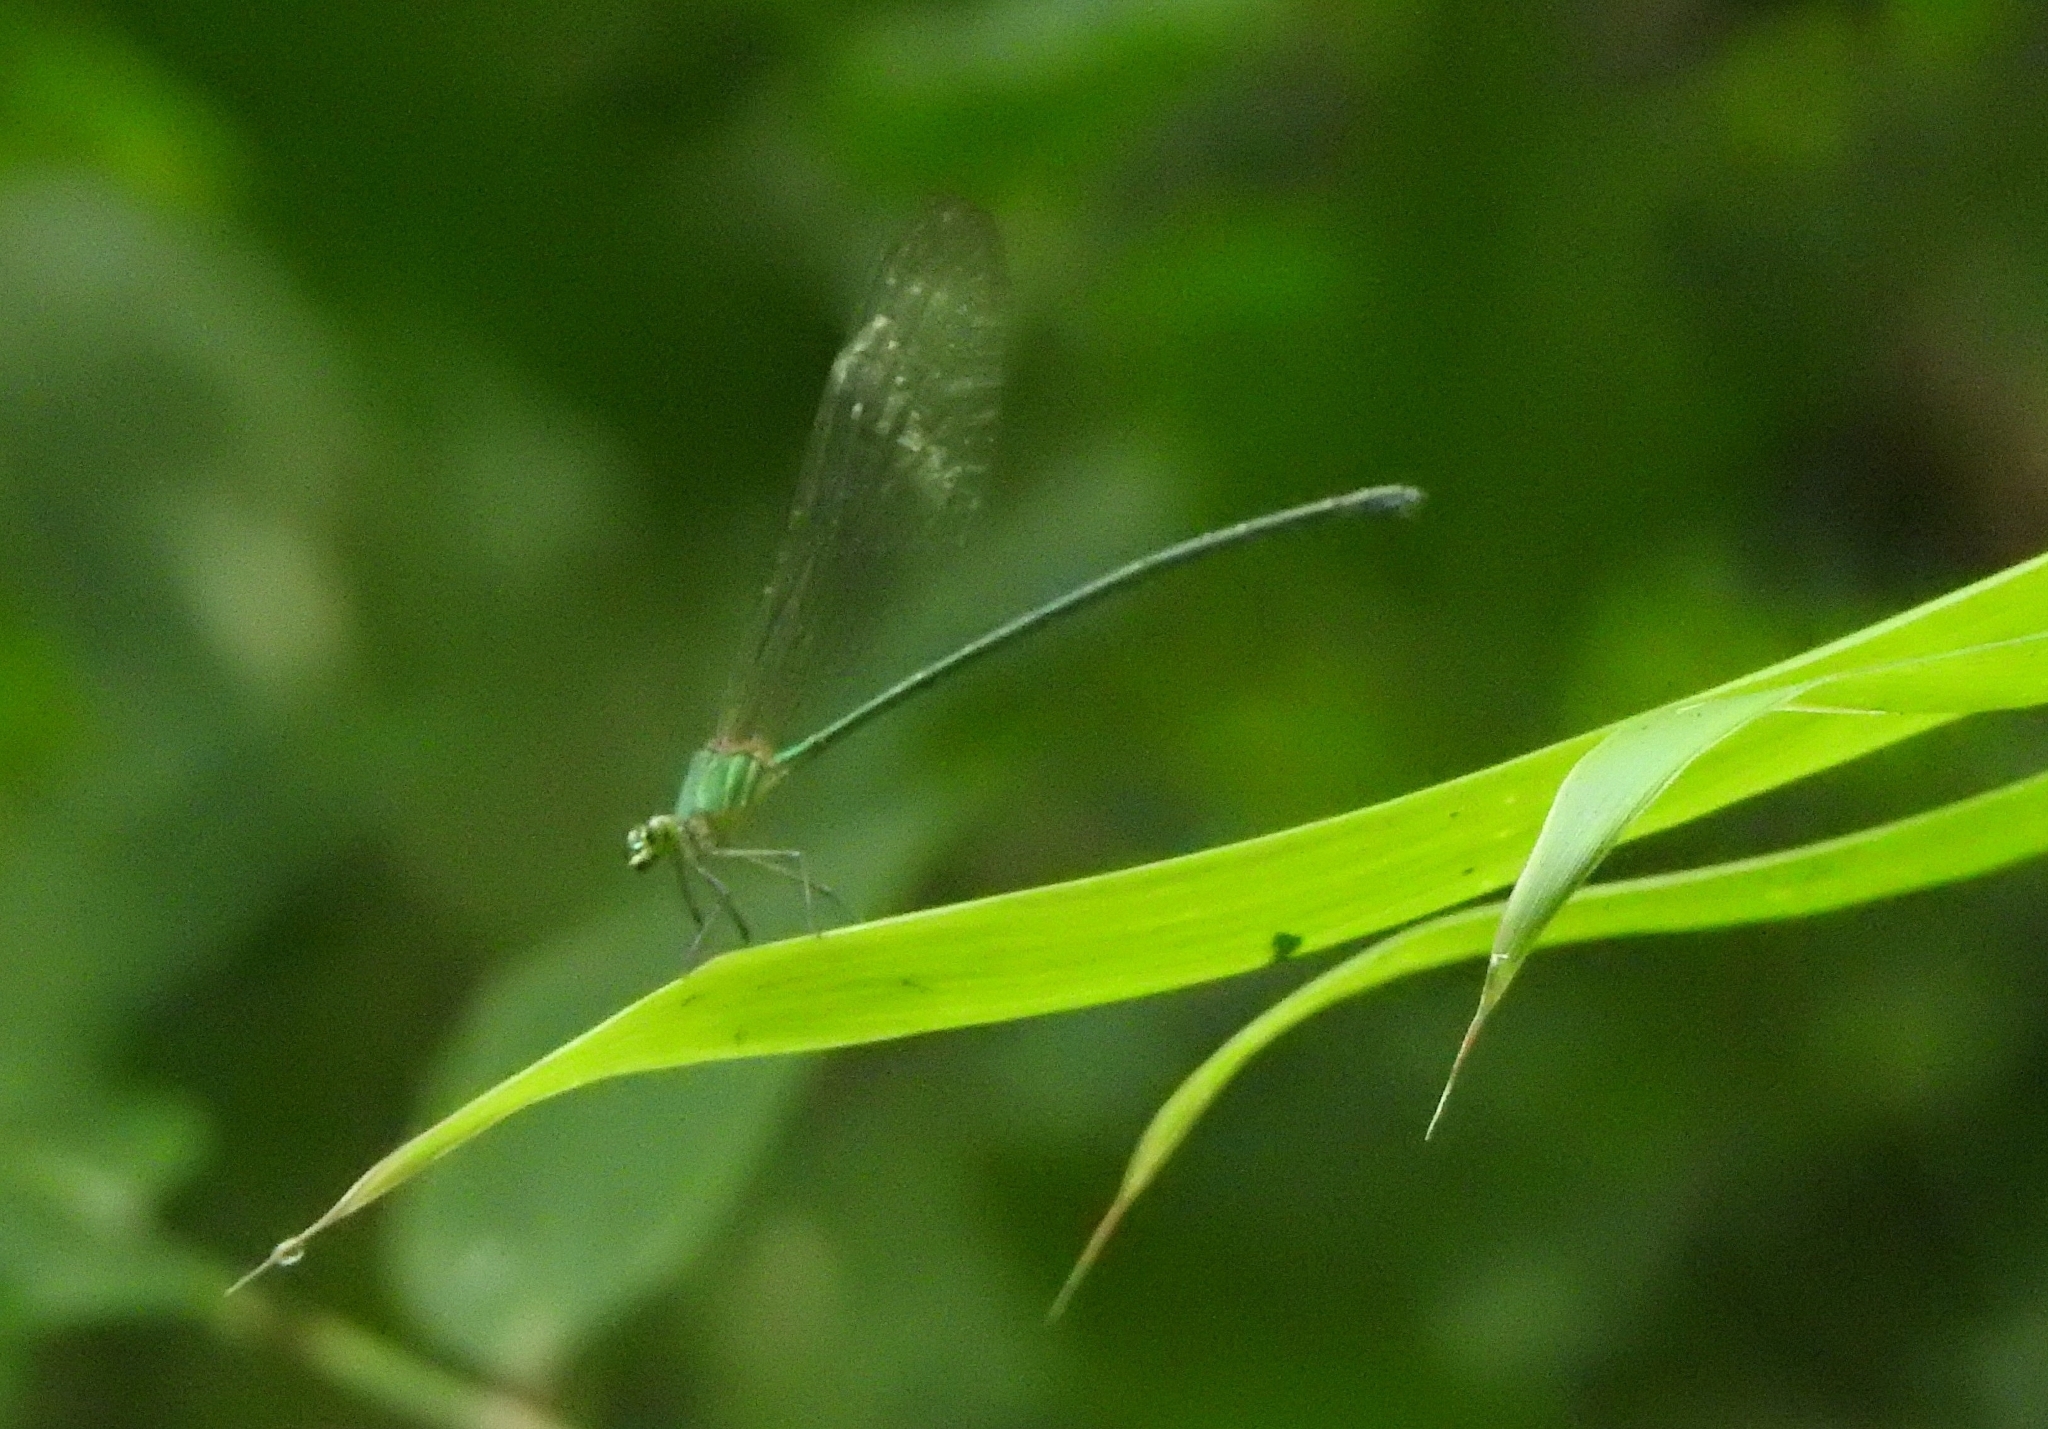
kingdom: Animalia
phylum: Arthropoda
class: Insecta
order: Odonata
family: Calopterygidae
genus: Vestalis
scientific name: Vestalis gracilis
